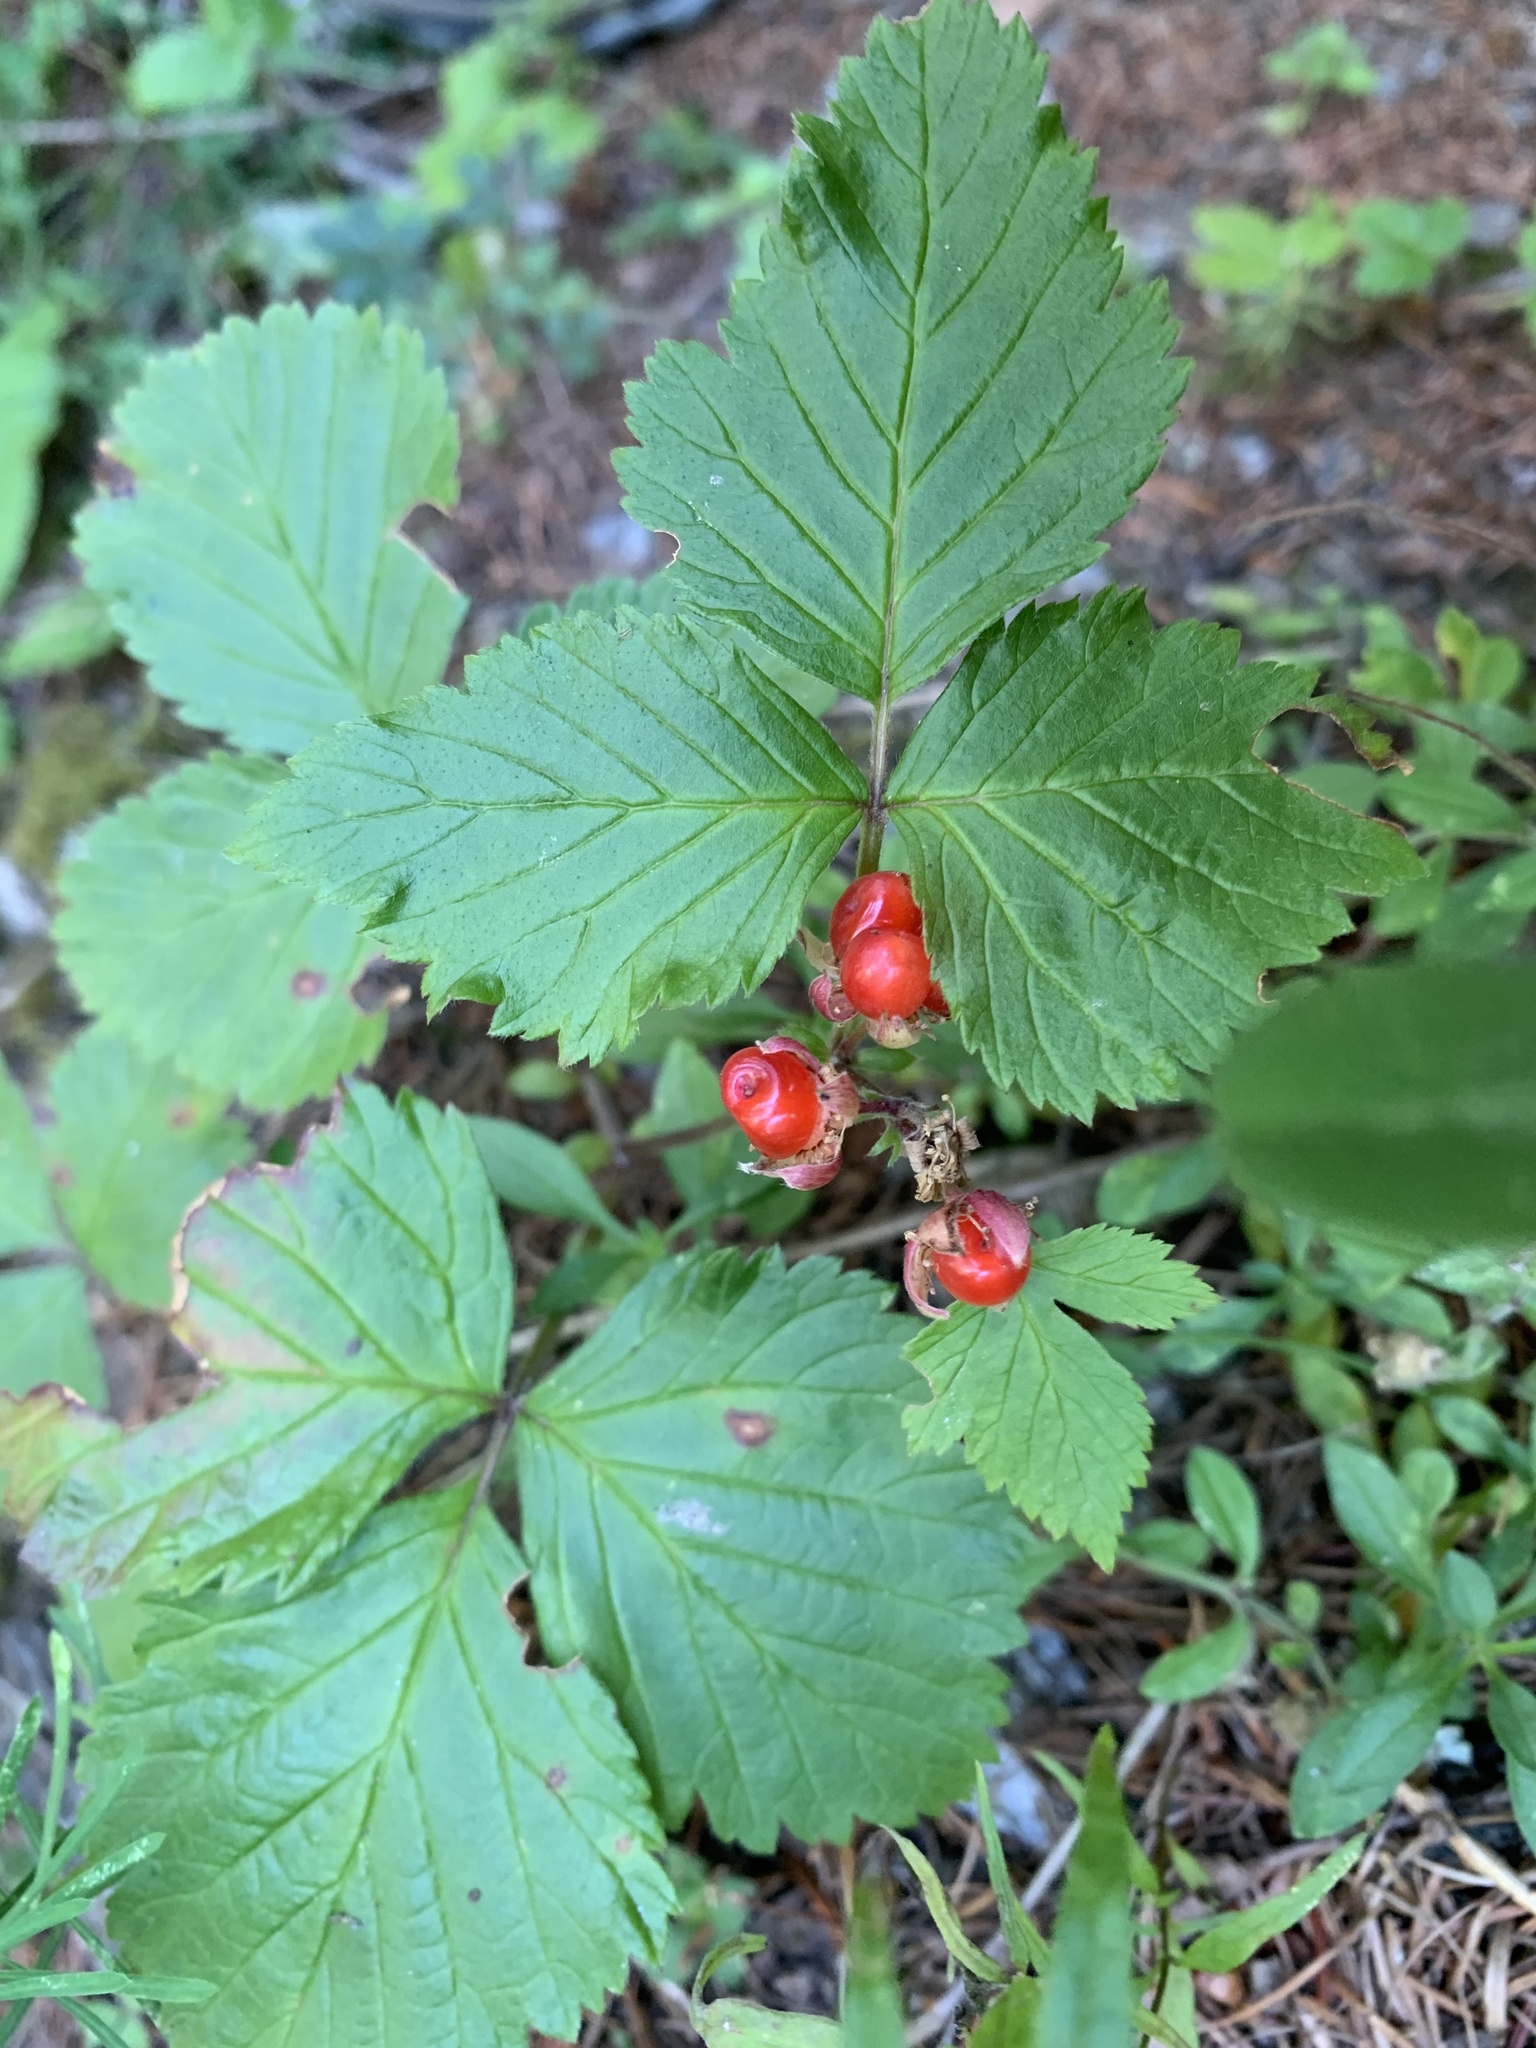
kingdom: Plantae
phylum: Tracheophyta
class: Magnoliopsida
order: Rosales
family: Rosaceae
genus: Rubus
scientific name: Rubus saxatilis
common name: Stone bramble
